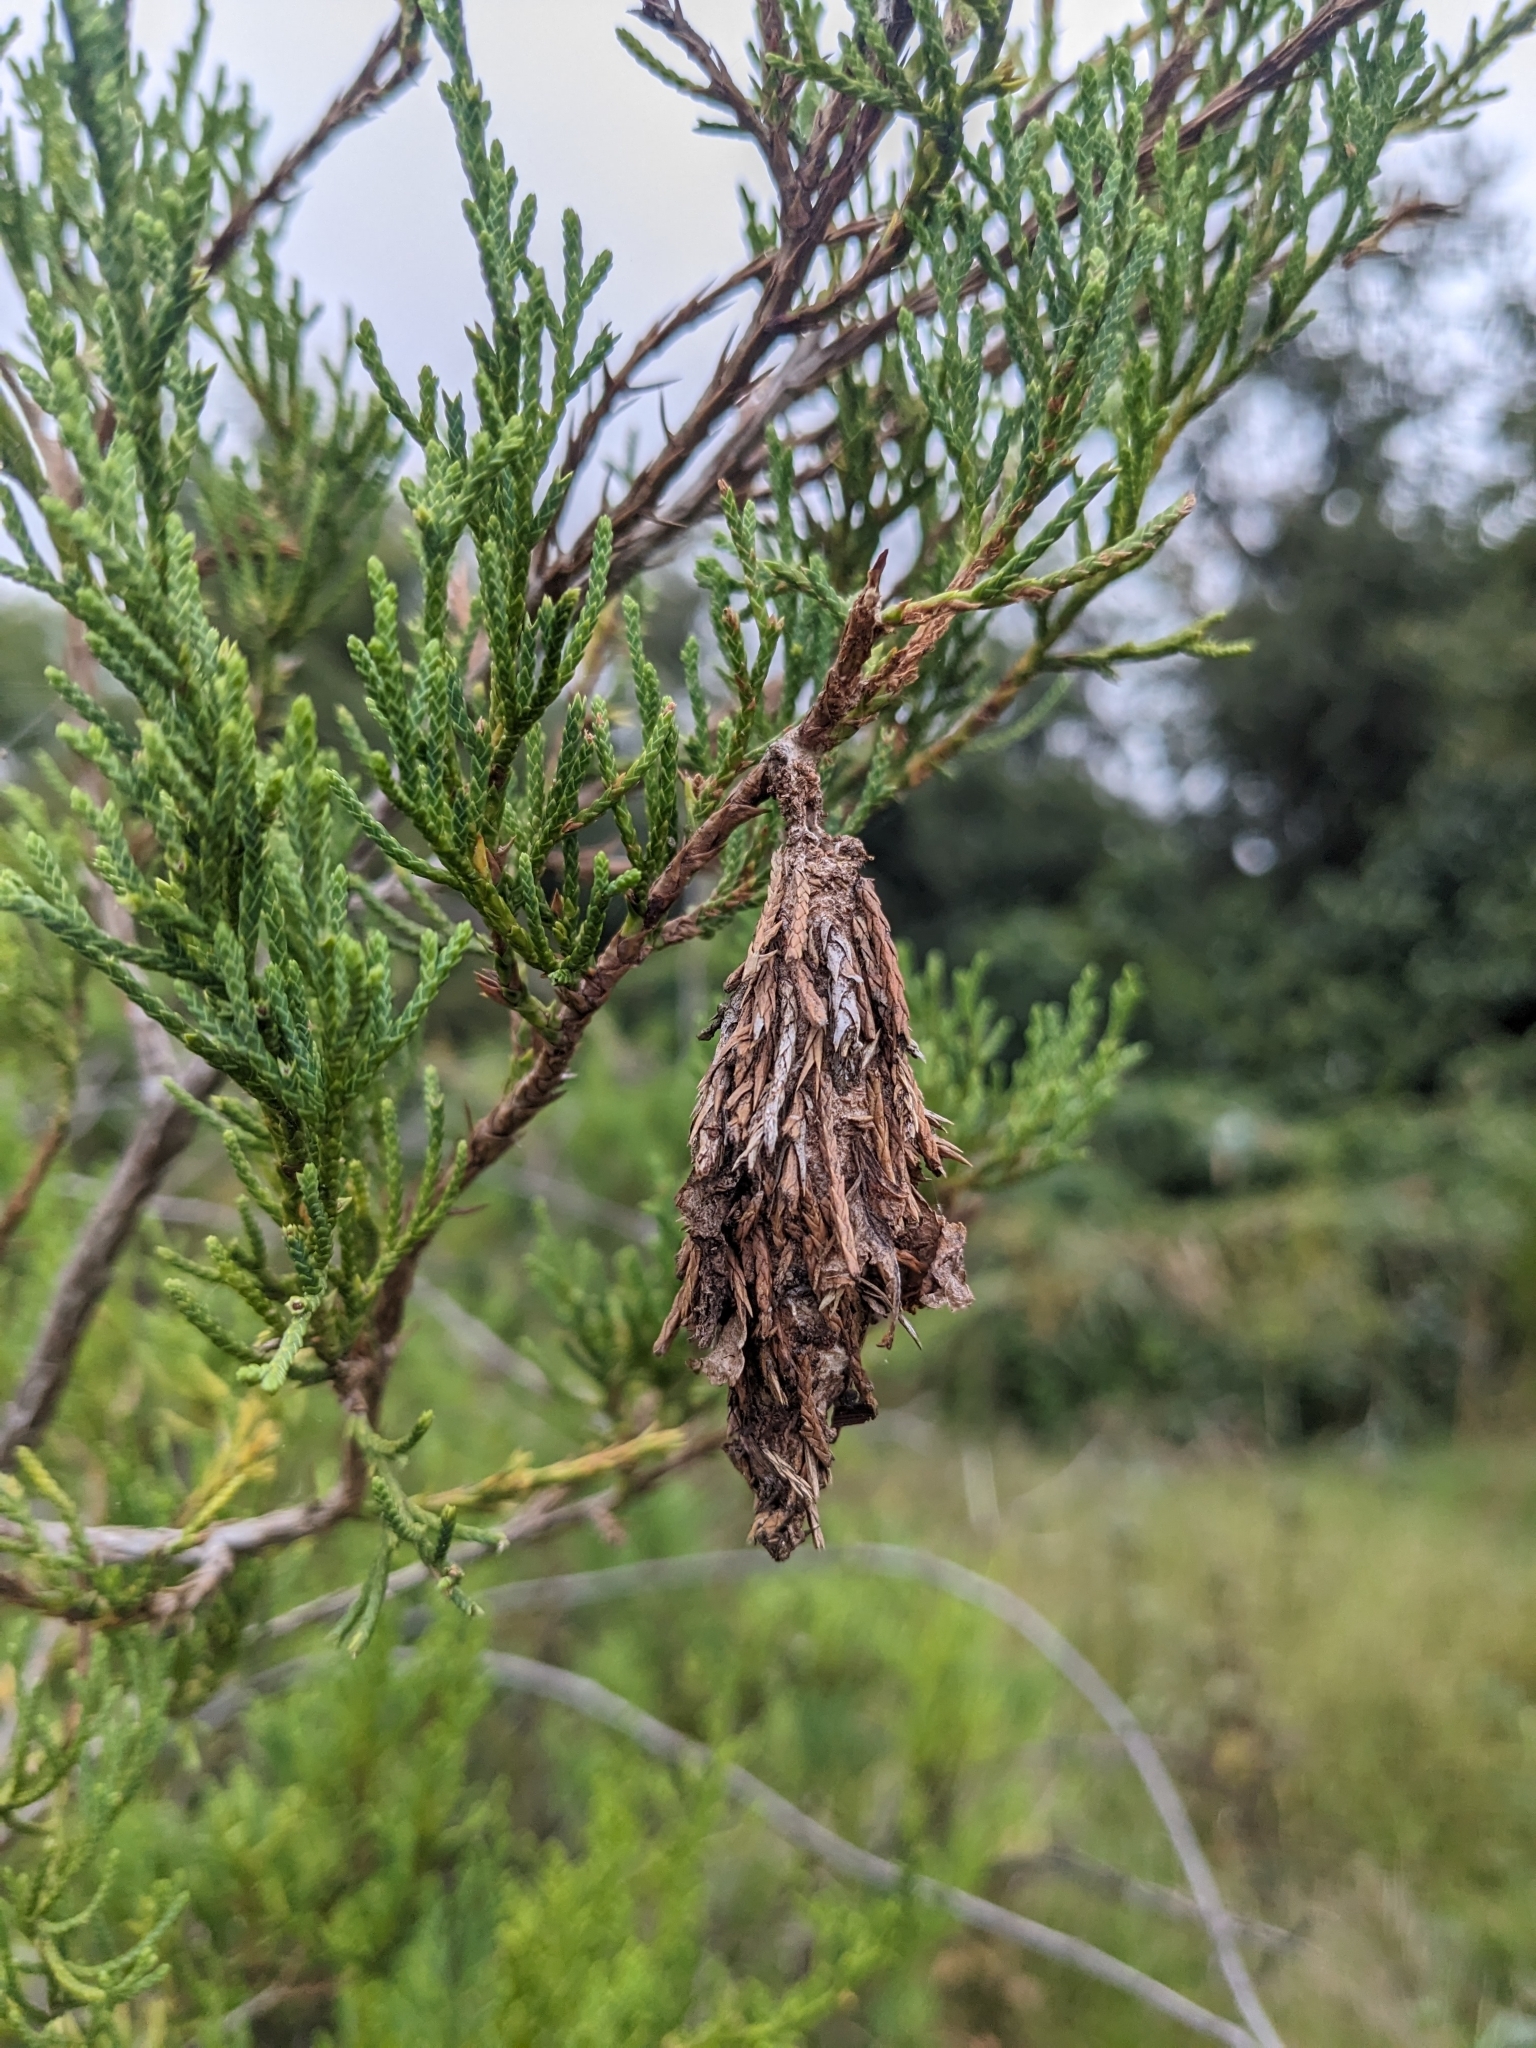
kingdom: Animalia
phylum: Arthropoda
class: Insecta
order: Lepidoptera
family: Psychidae
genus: Thyridopteryx
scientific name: Thyridopteryx ephemeraeformis
